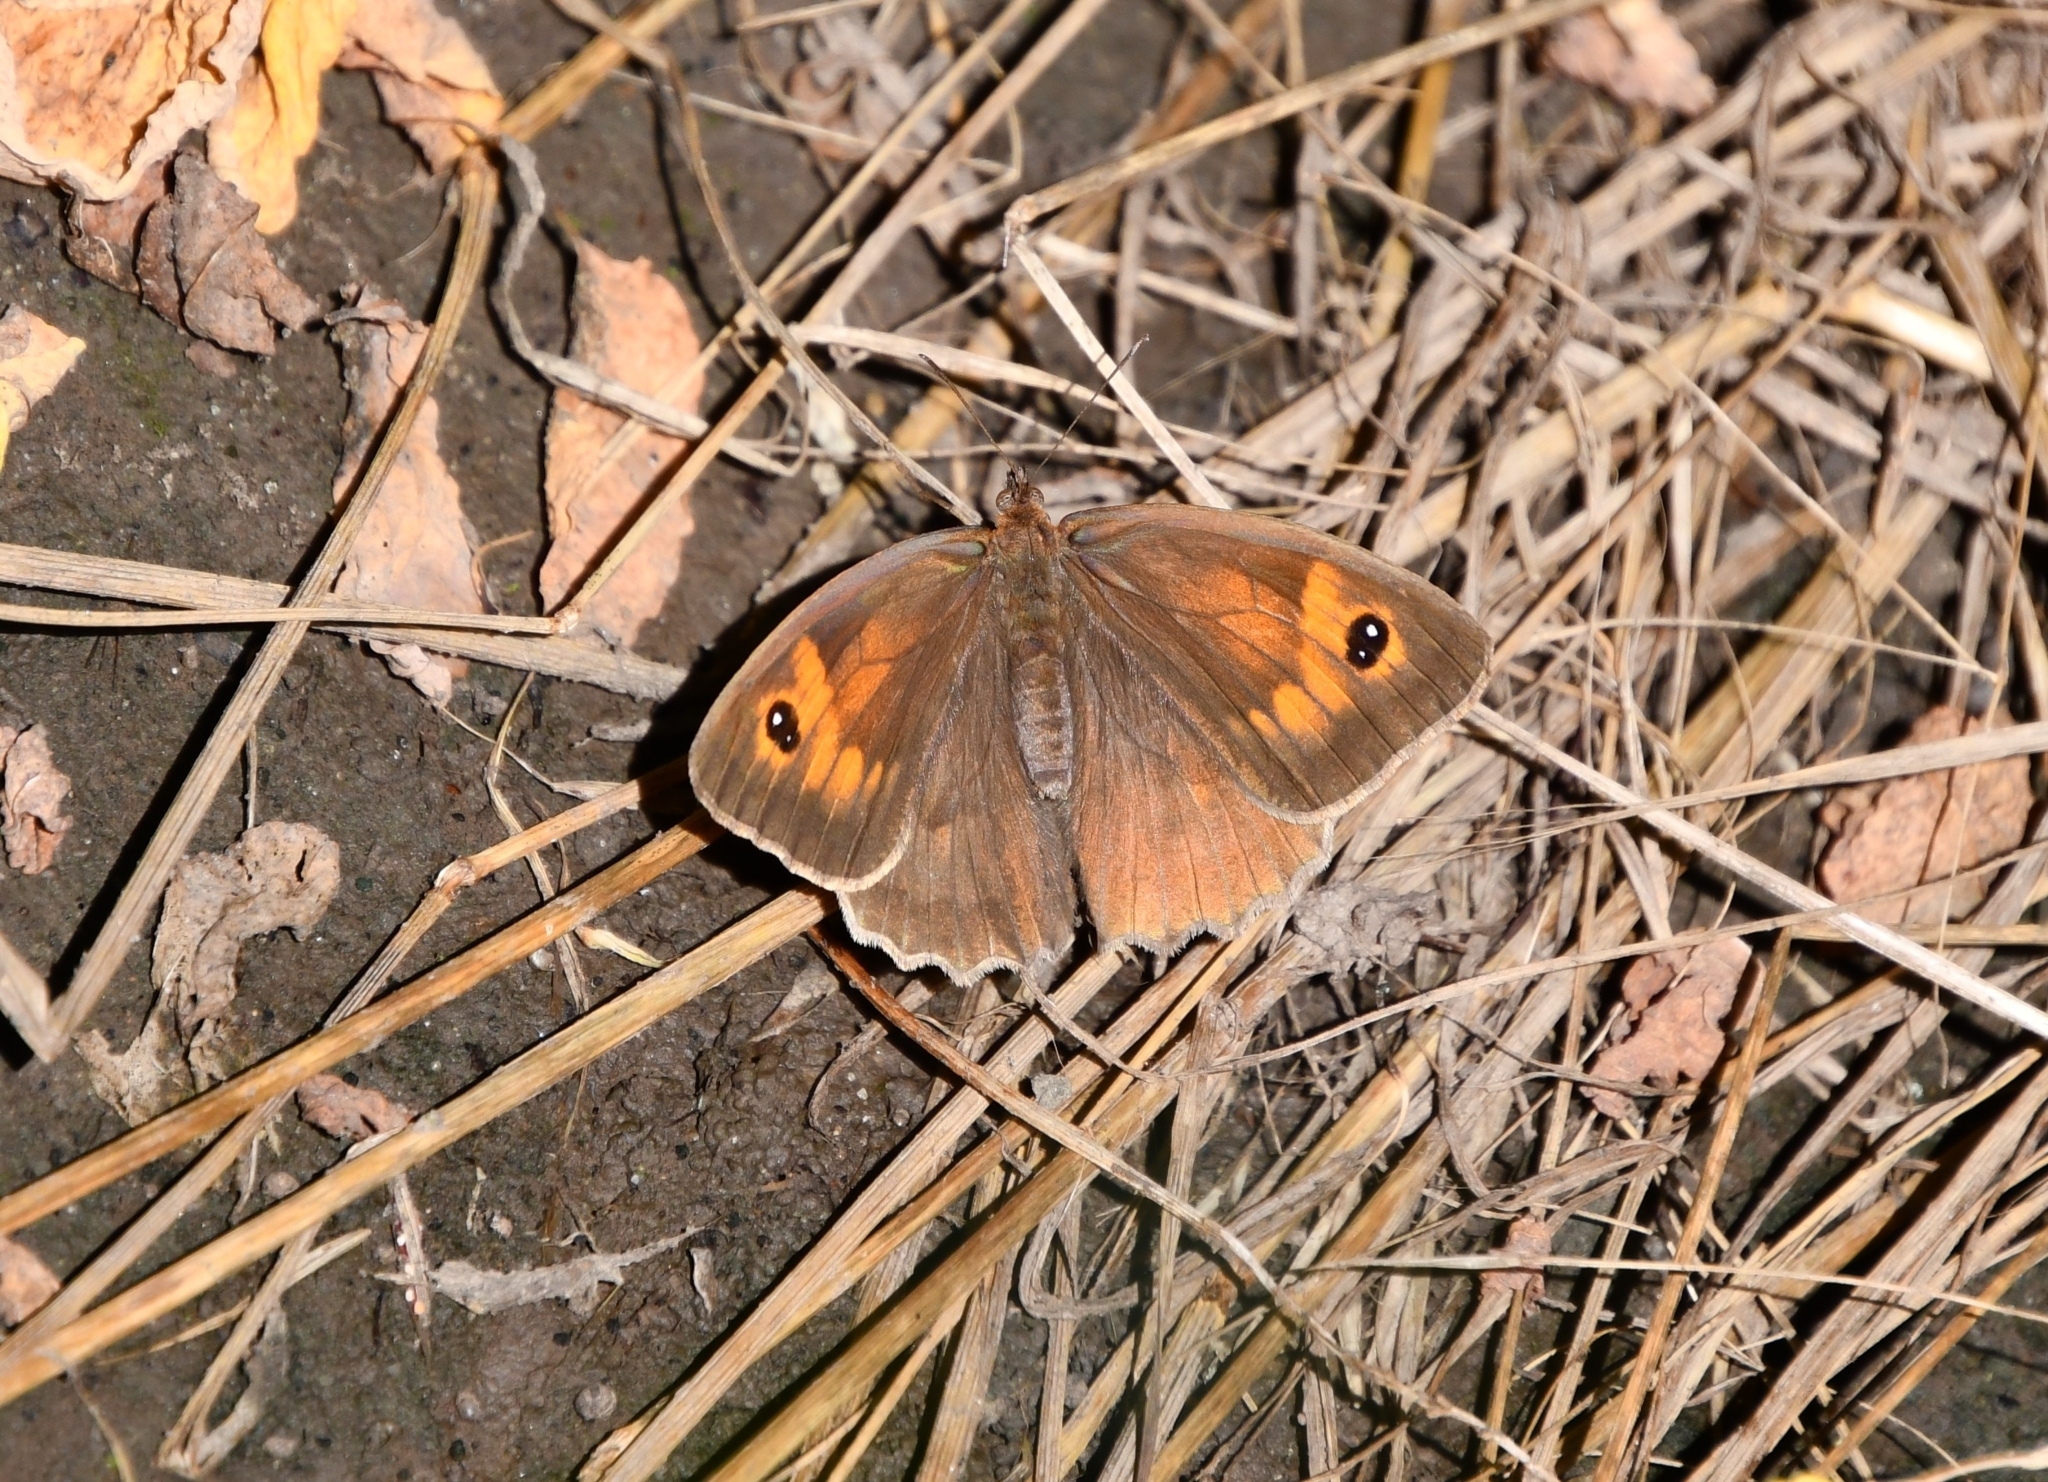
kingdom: Animalia
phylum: Arthropoda
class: Insecta
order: Lepidoptera
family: Nymphalidae
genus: Maniola
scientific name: Maniola jurtina
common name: Meadow brown
